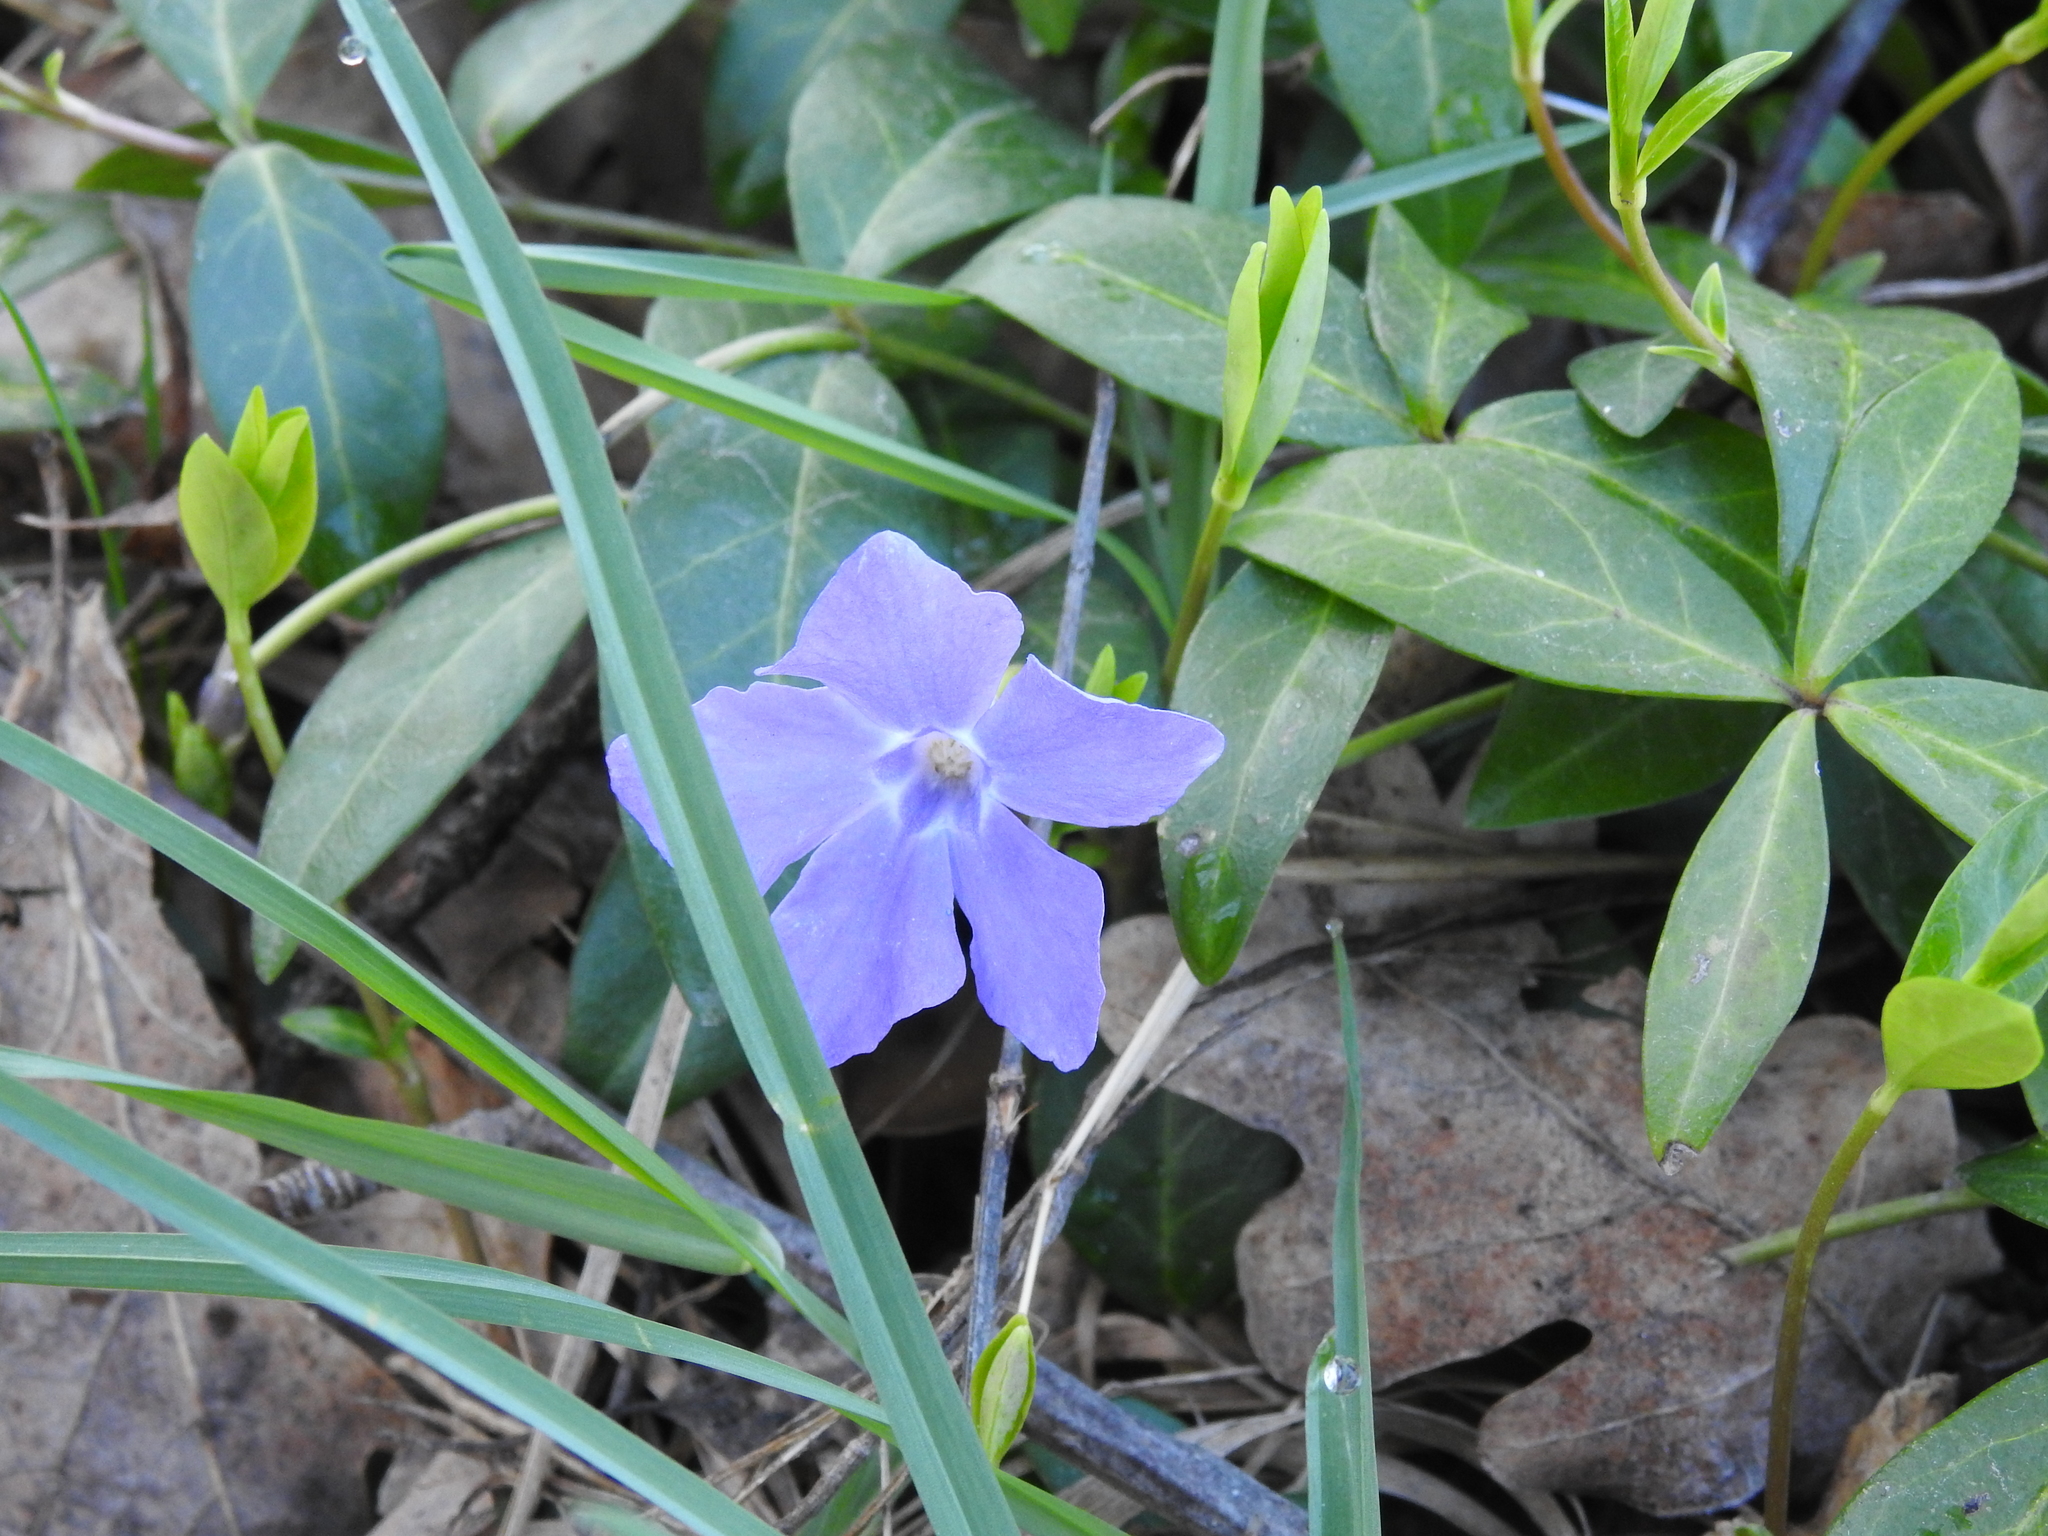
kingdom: Plantae
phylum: Tracheophyta
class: Magnoliopsida
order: Gentianales
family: Apocynaceae
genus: Vinca
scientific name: Vinca minor
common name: Lesser periwinkle
